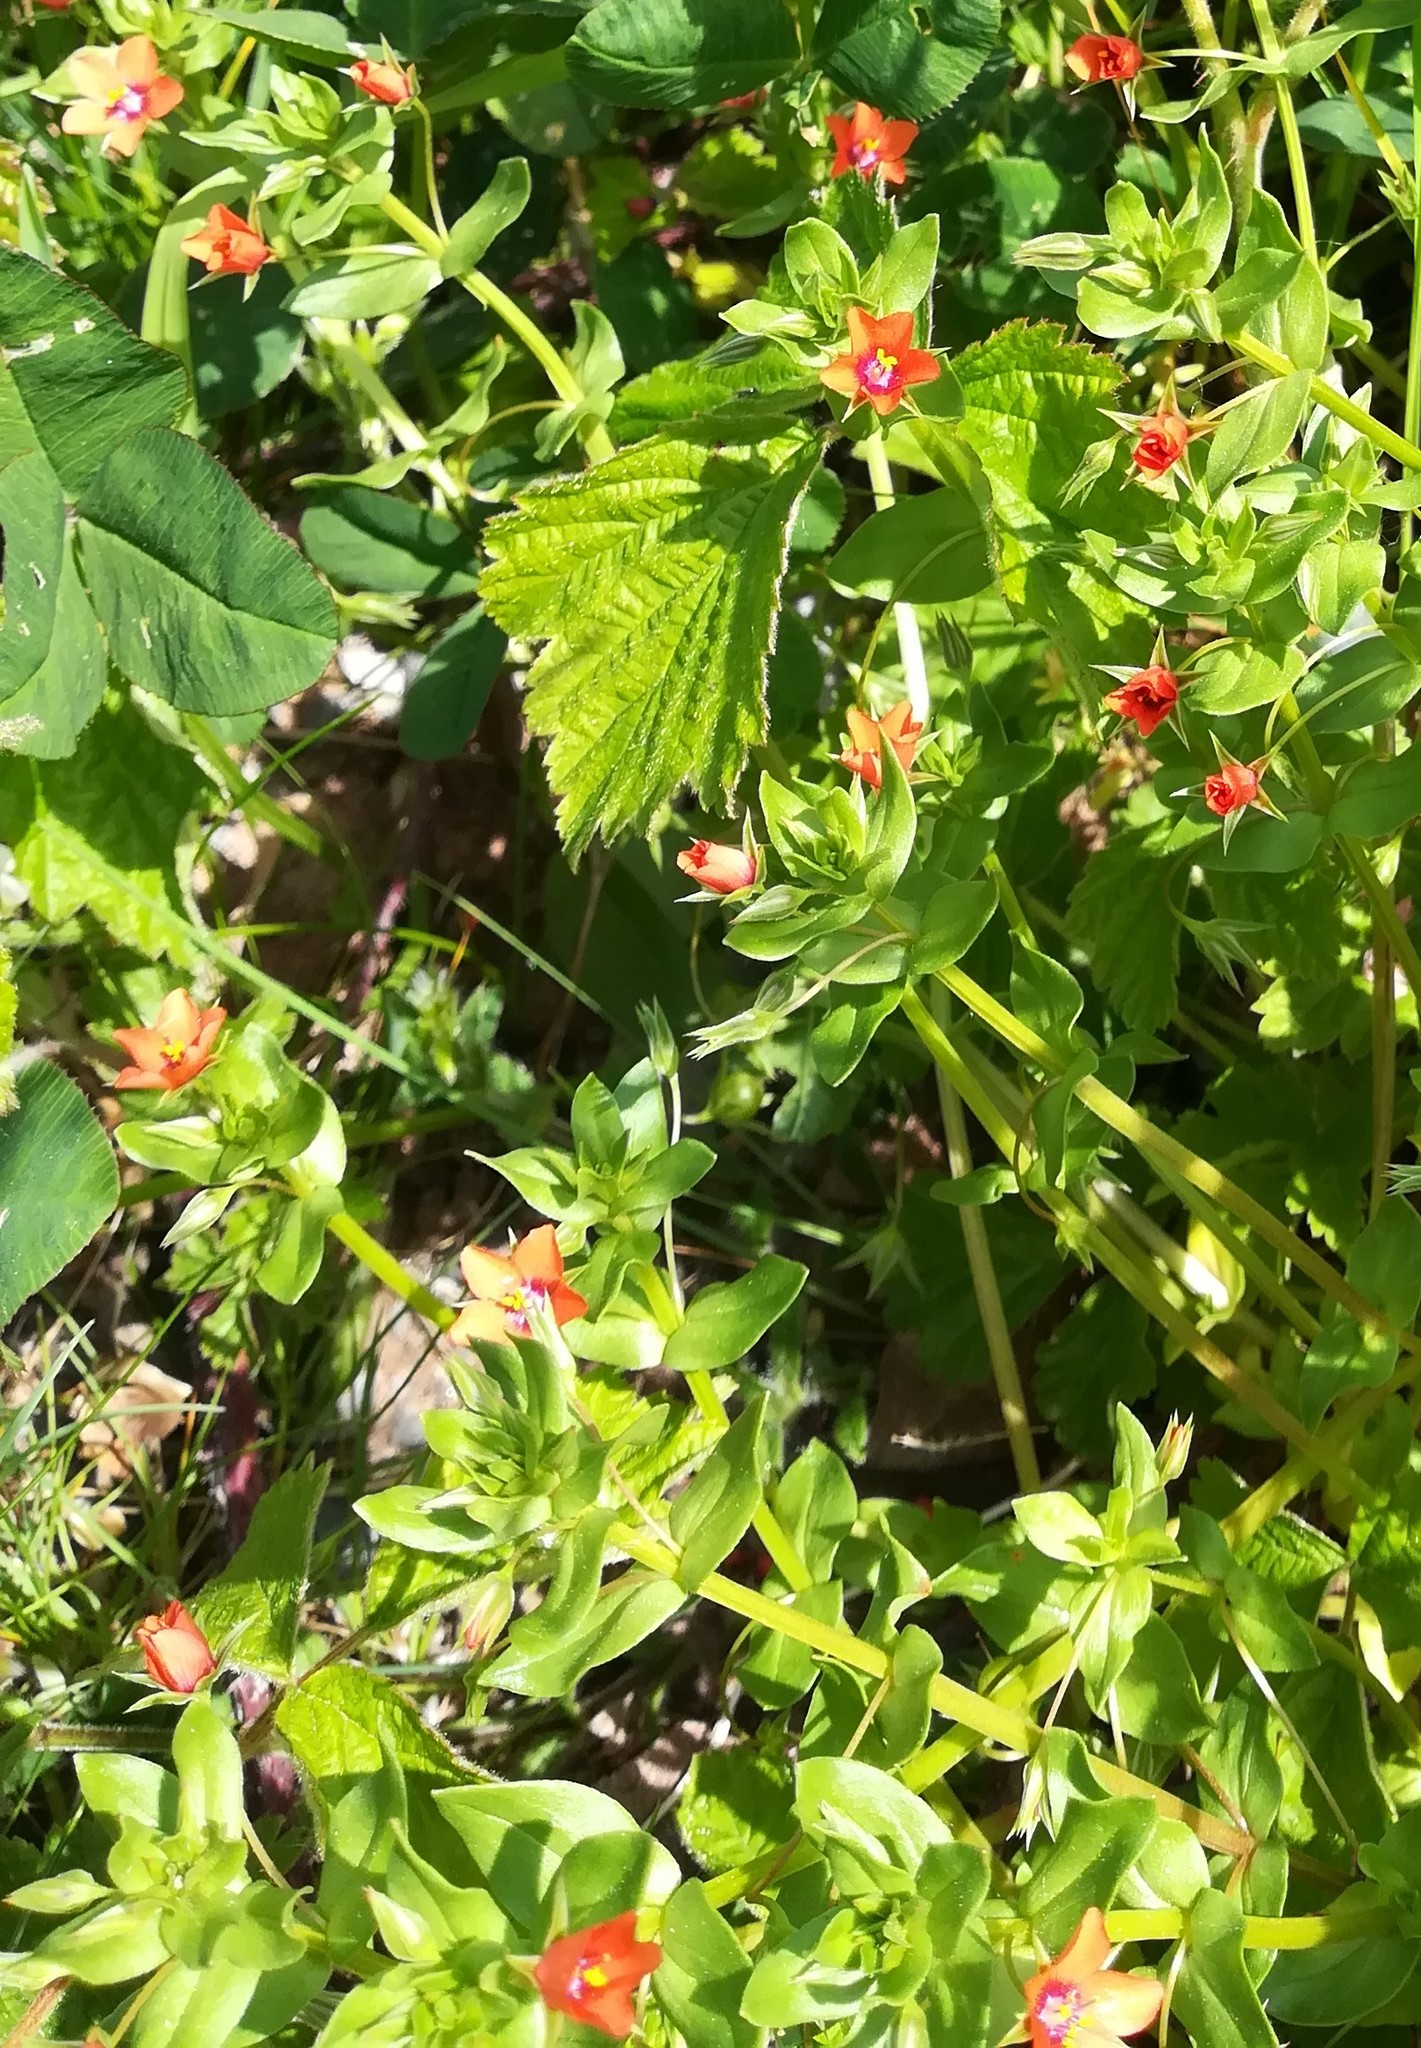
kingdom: Plantae
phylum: Tracheophyta
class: Magnoliopsida
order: Ericales
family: Primulaceae
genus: Lysimachia
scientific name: Lysimachia arvensis
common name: Scarlet pimpernel
